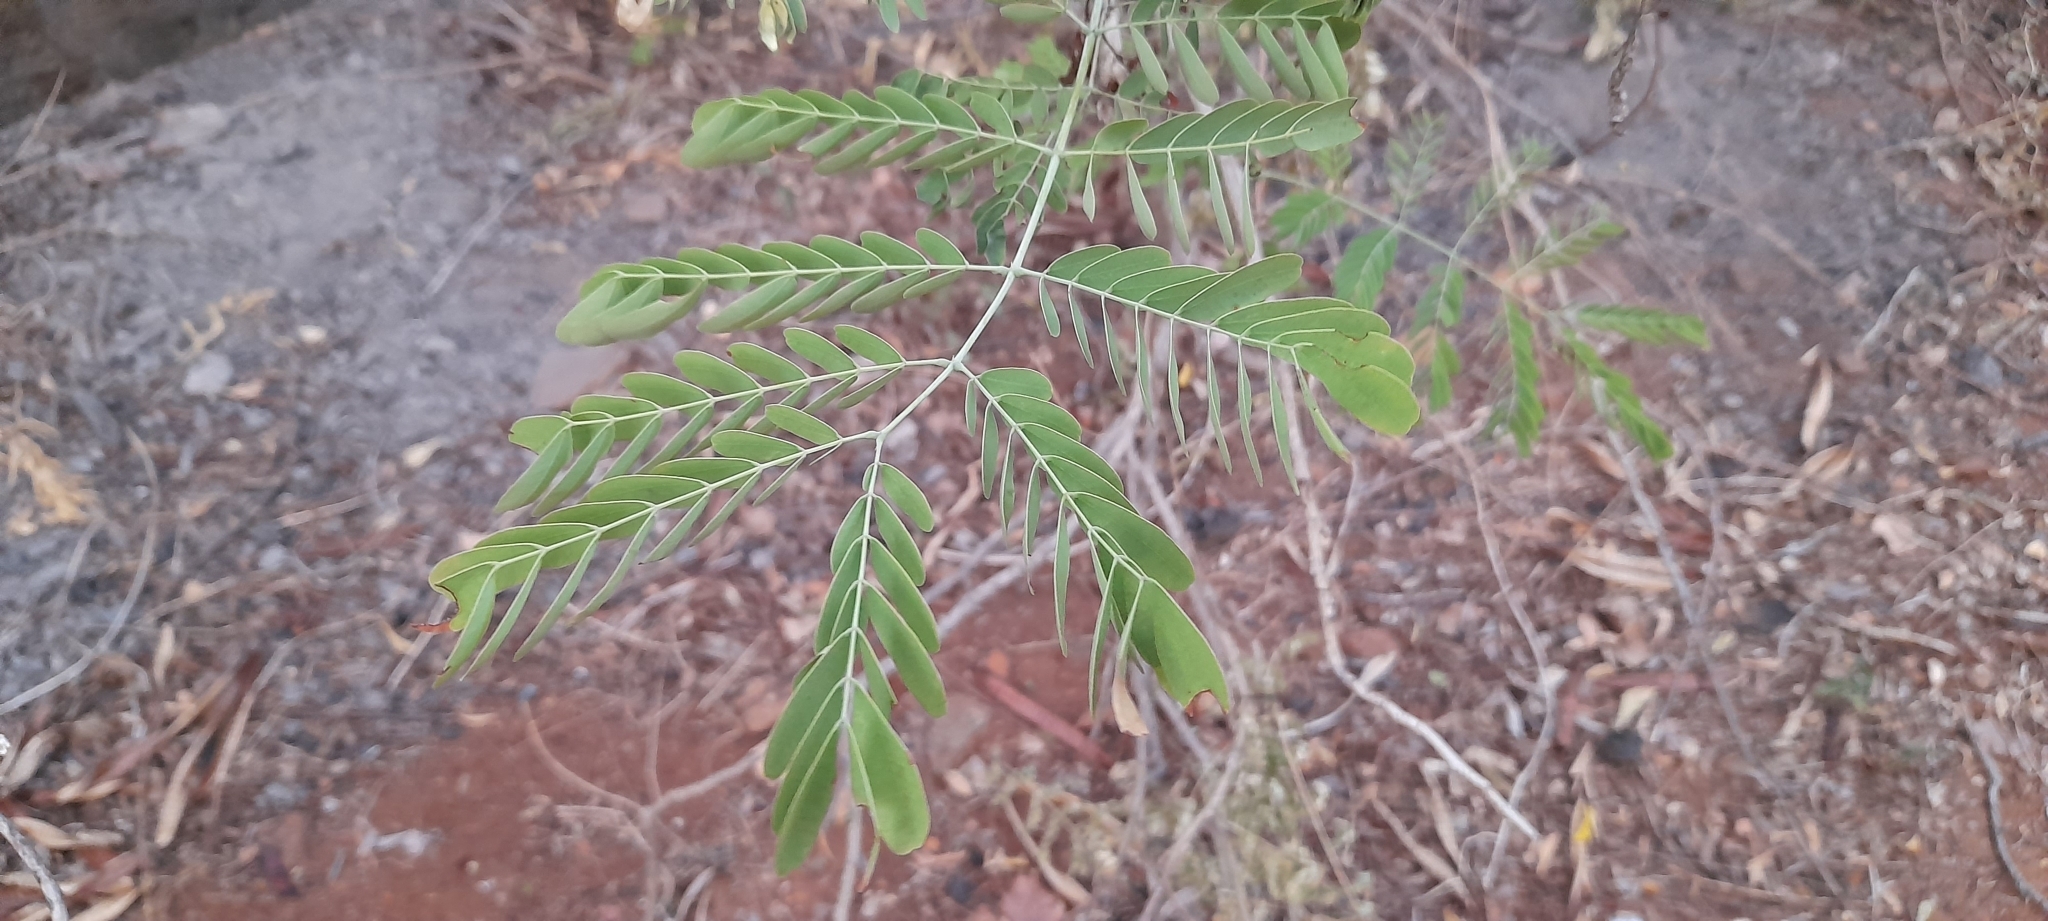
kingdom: Plantae
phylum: Tracheophyta
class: Magnoliopsida
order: Fabales
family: Fabaceae
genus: Caesalpinia
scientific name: Caesalpinia pulcherrima
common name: Pride-of-barbados
